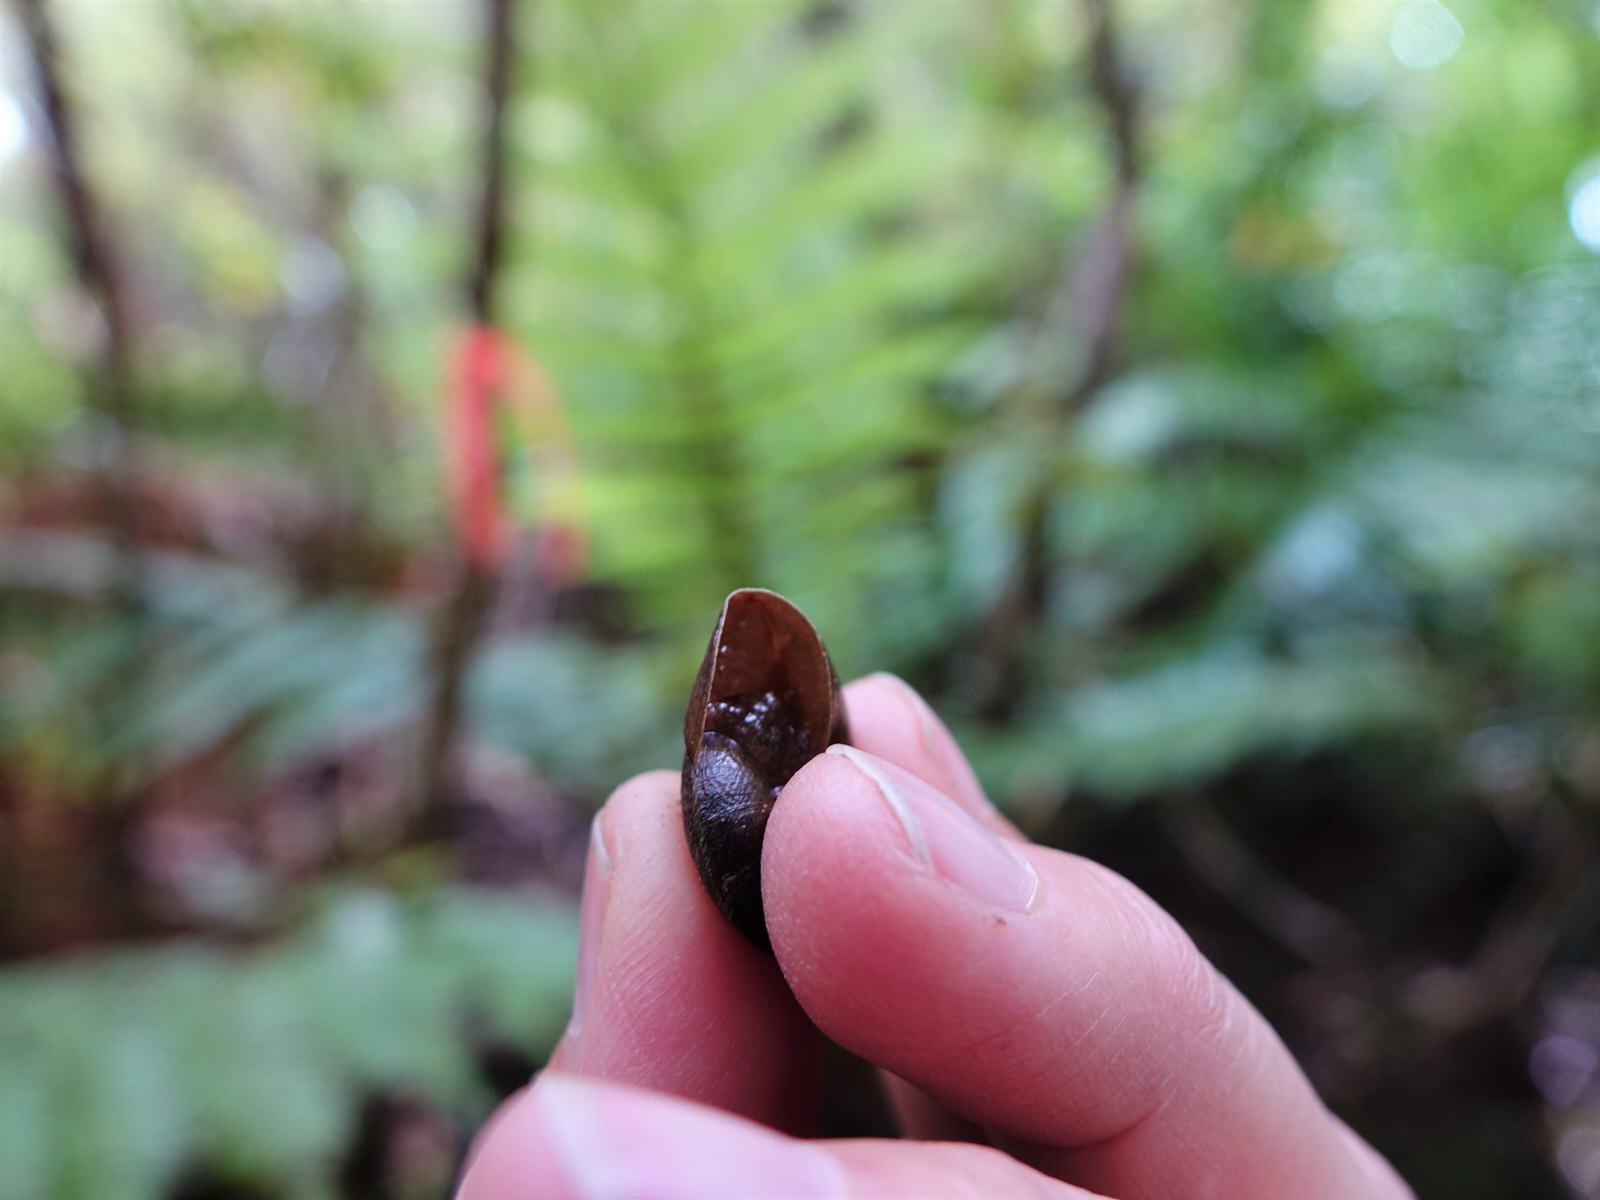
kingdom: Animalia
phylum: Mollusca
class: Gastropoda
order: Stylommatophora
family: Rhytididae
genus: Amborhytida
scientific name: Amborhytida dunniae
